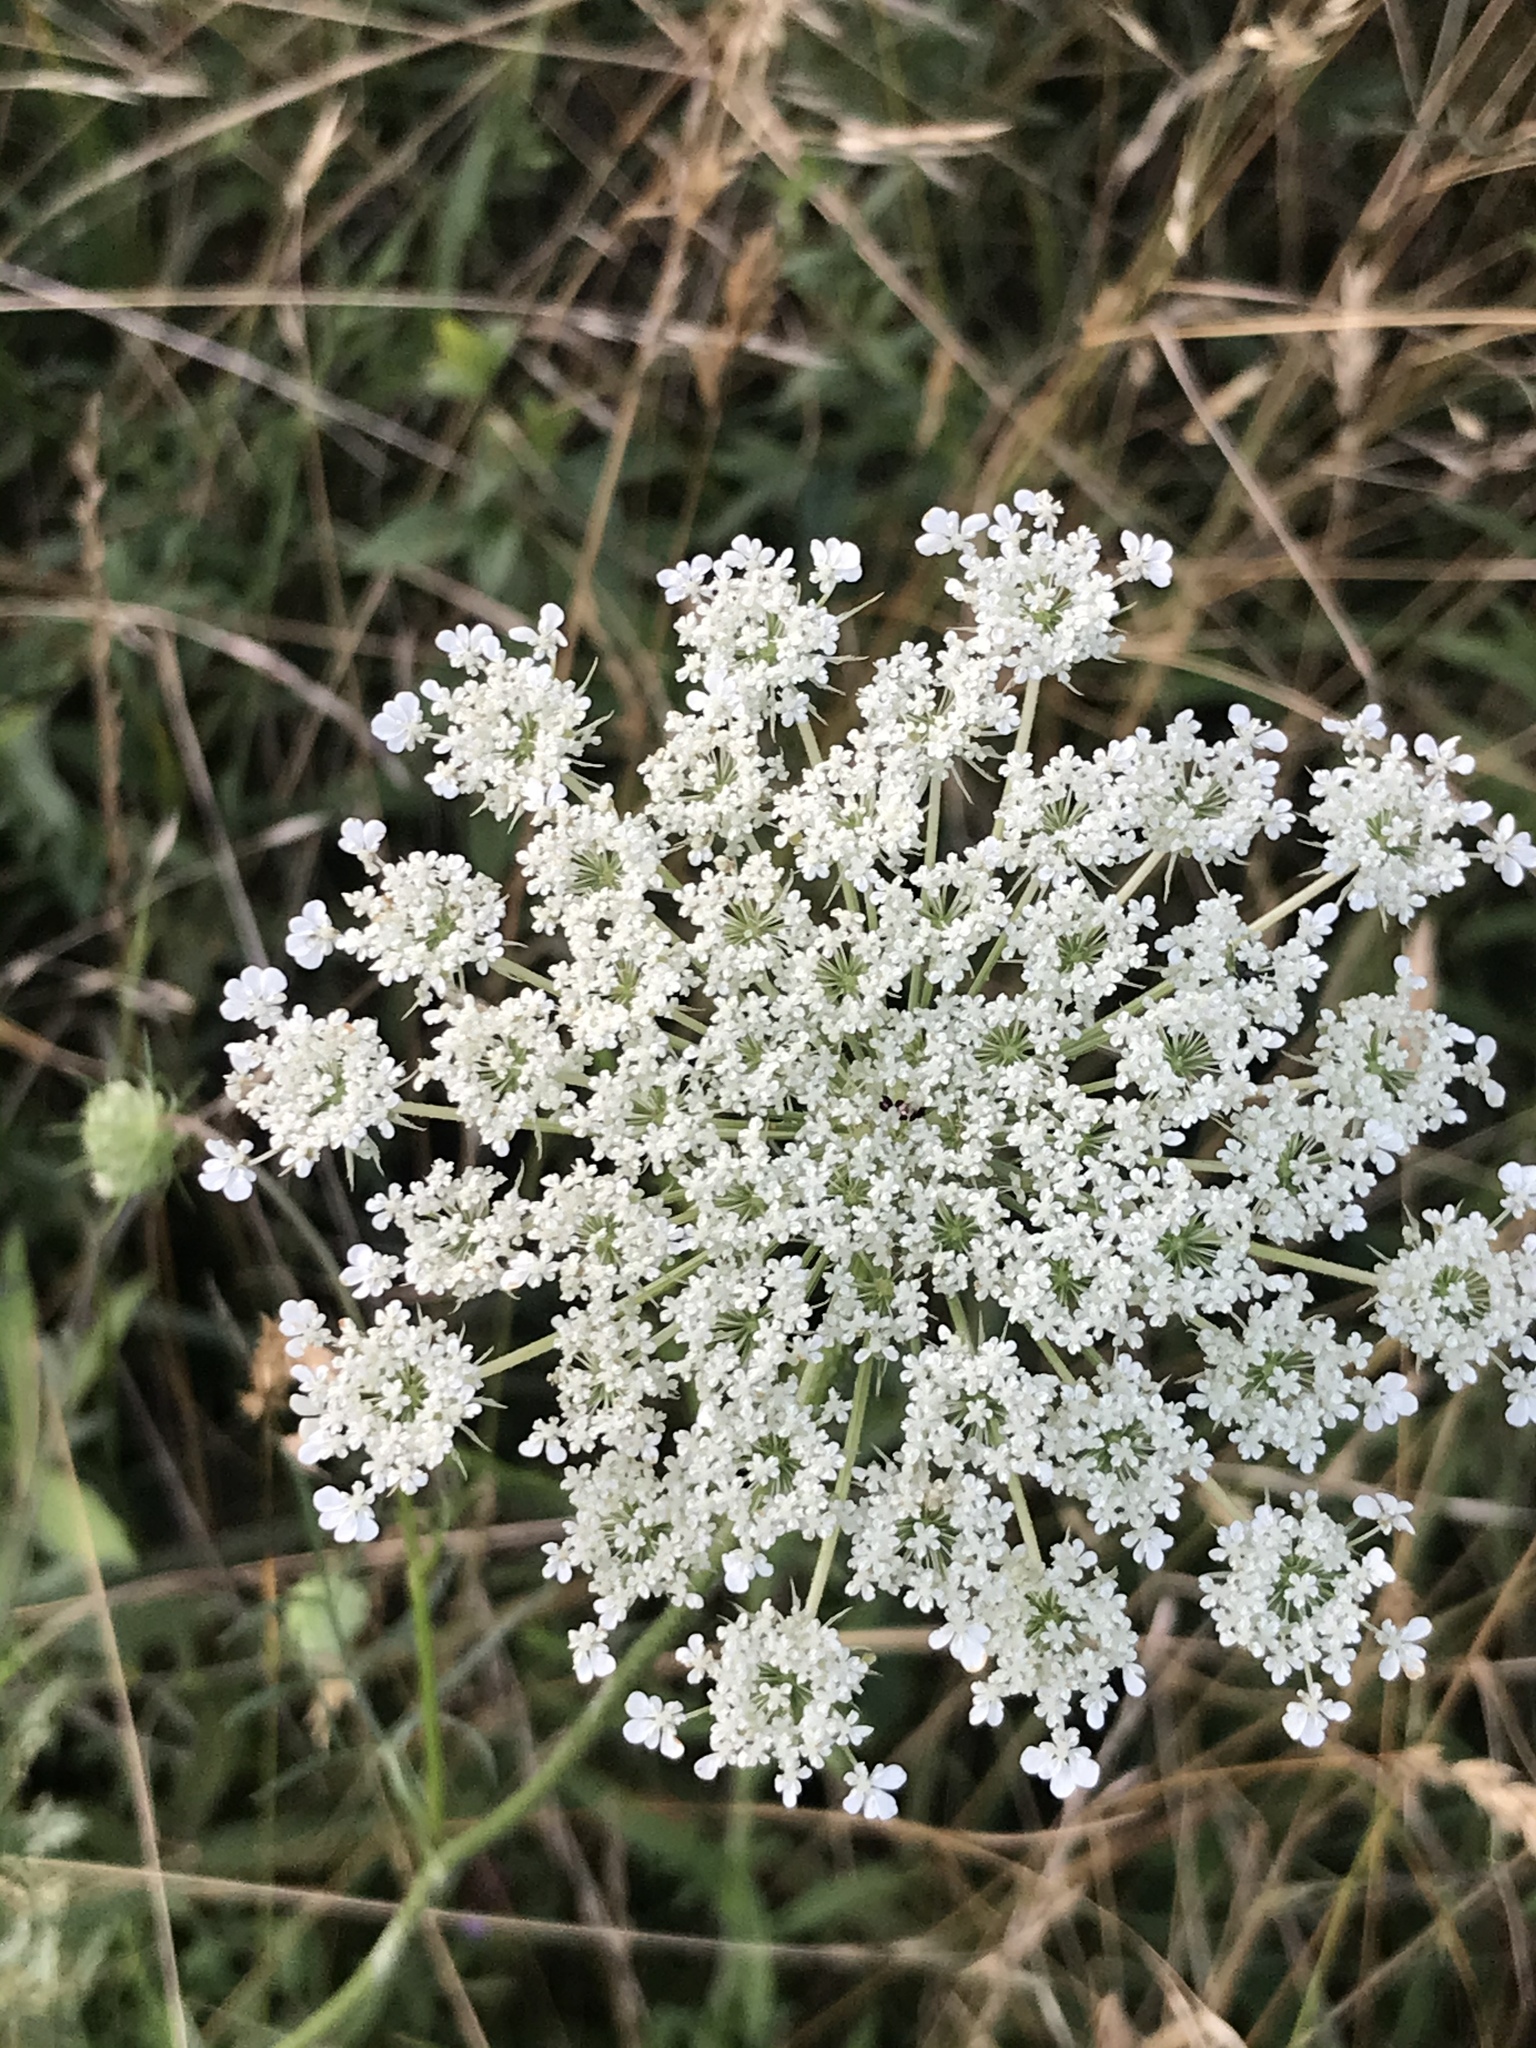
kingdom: Plantae
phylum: Tracheophyta
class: Magnoliopsida
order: Apiales
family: Apiaceae
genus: Daucus
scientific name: Daucus carota
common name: Wild carrot
